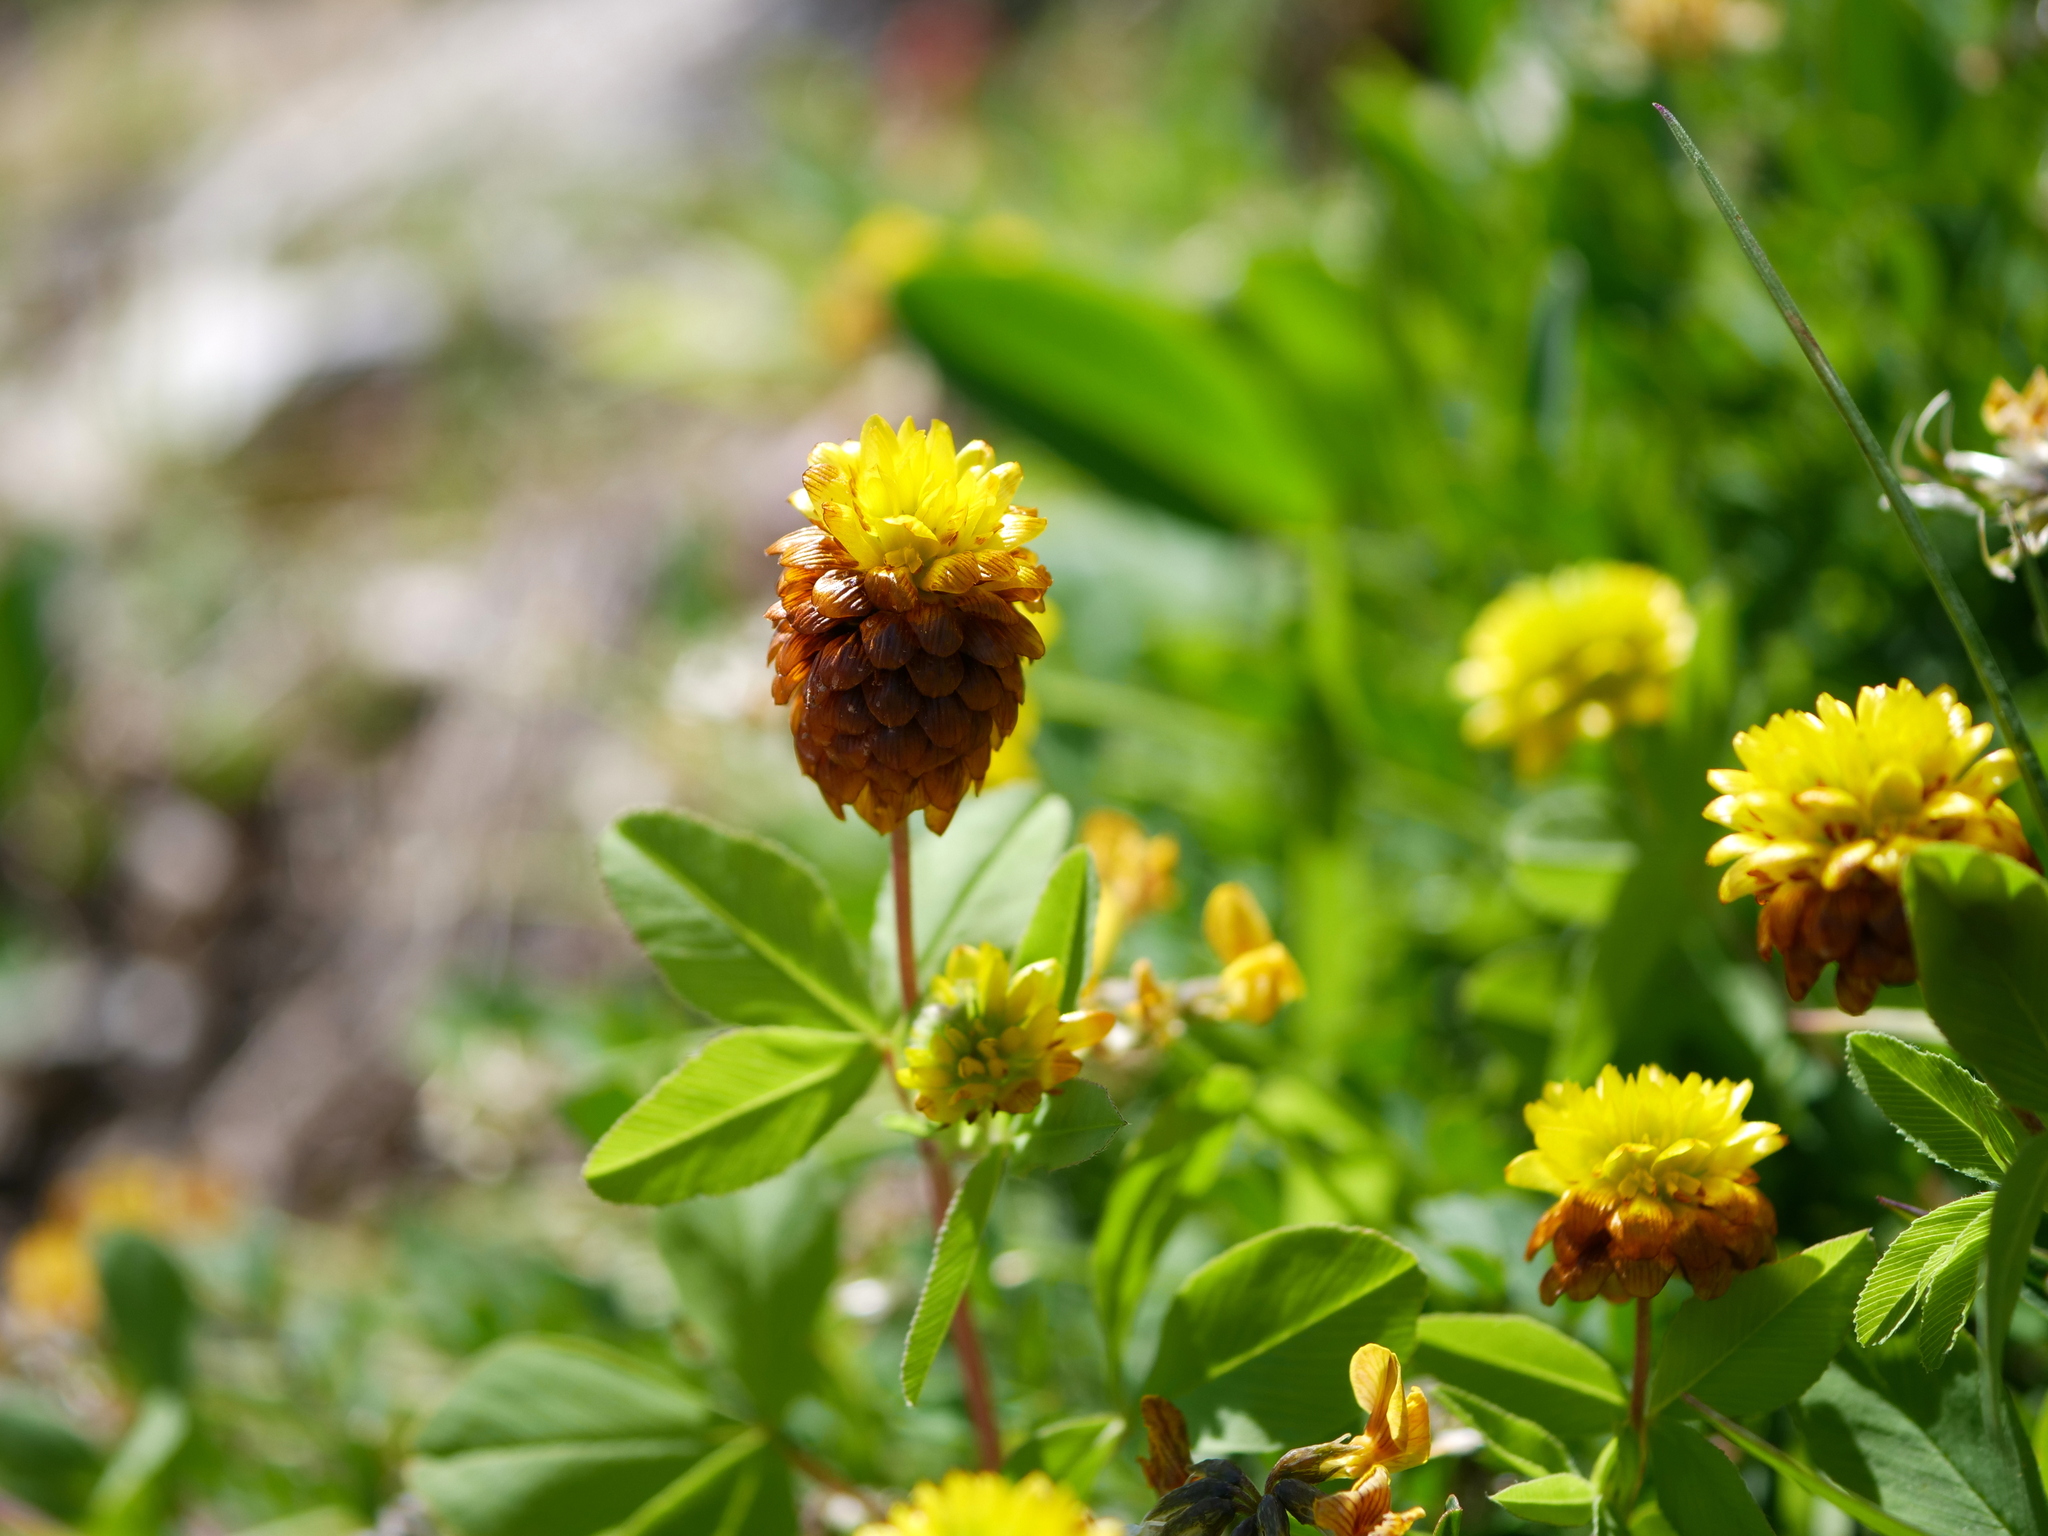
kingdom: Plantae
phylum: Tracheophyta
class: Magnoliopsida
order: Fabales
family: Fabaceae
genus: Trifolium
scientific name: Trifolium badium
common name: Brown clover
